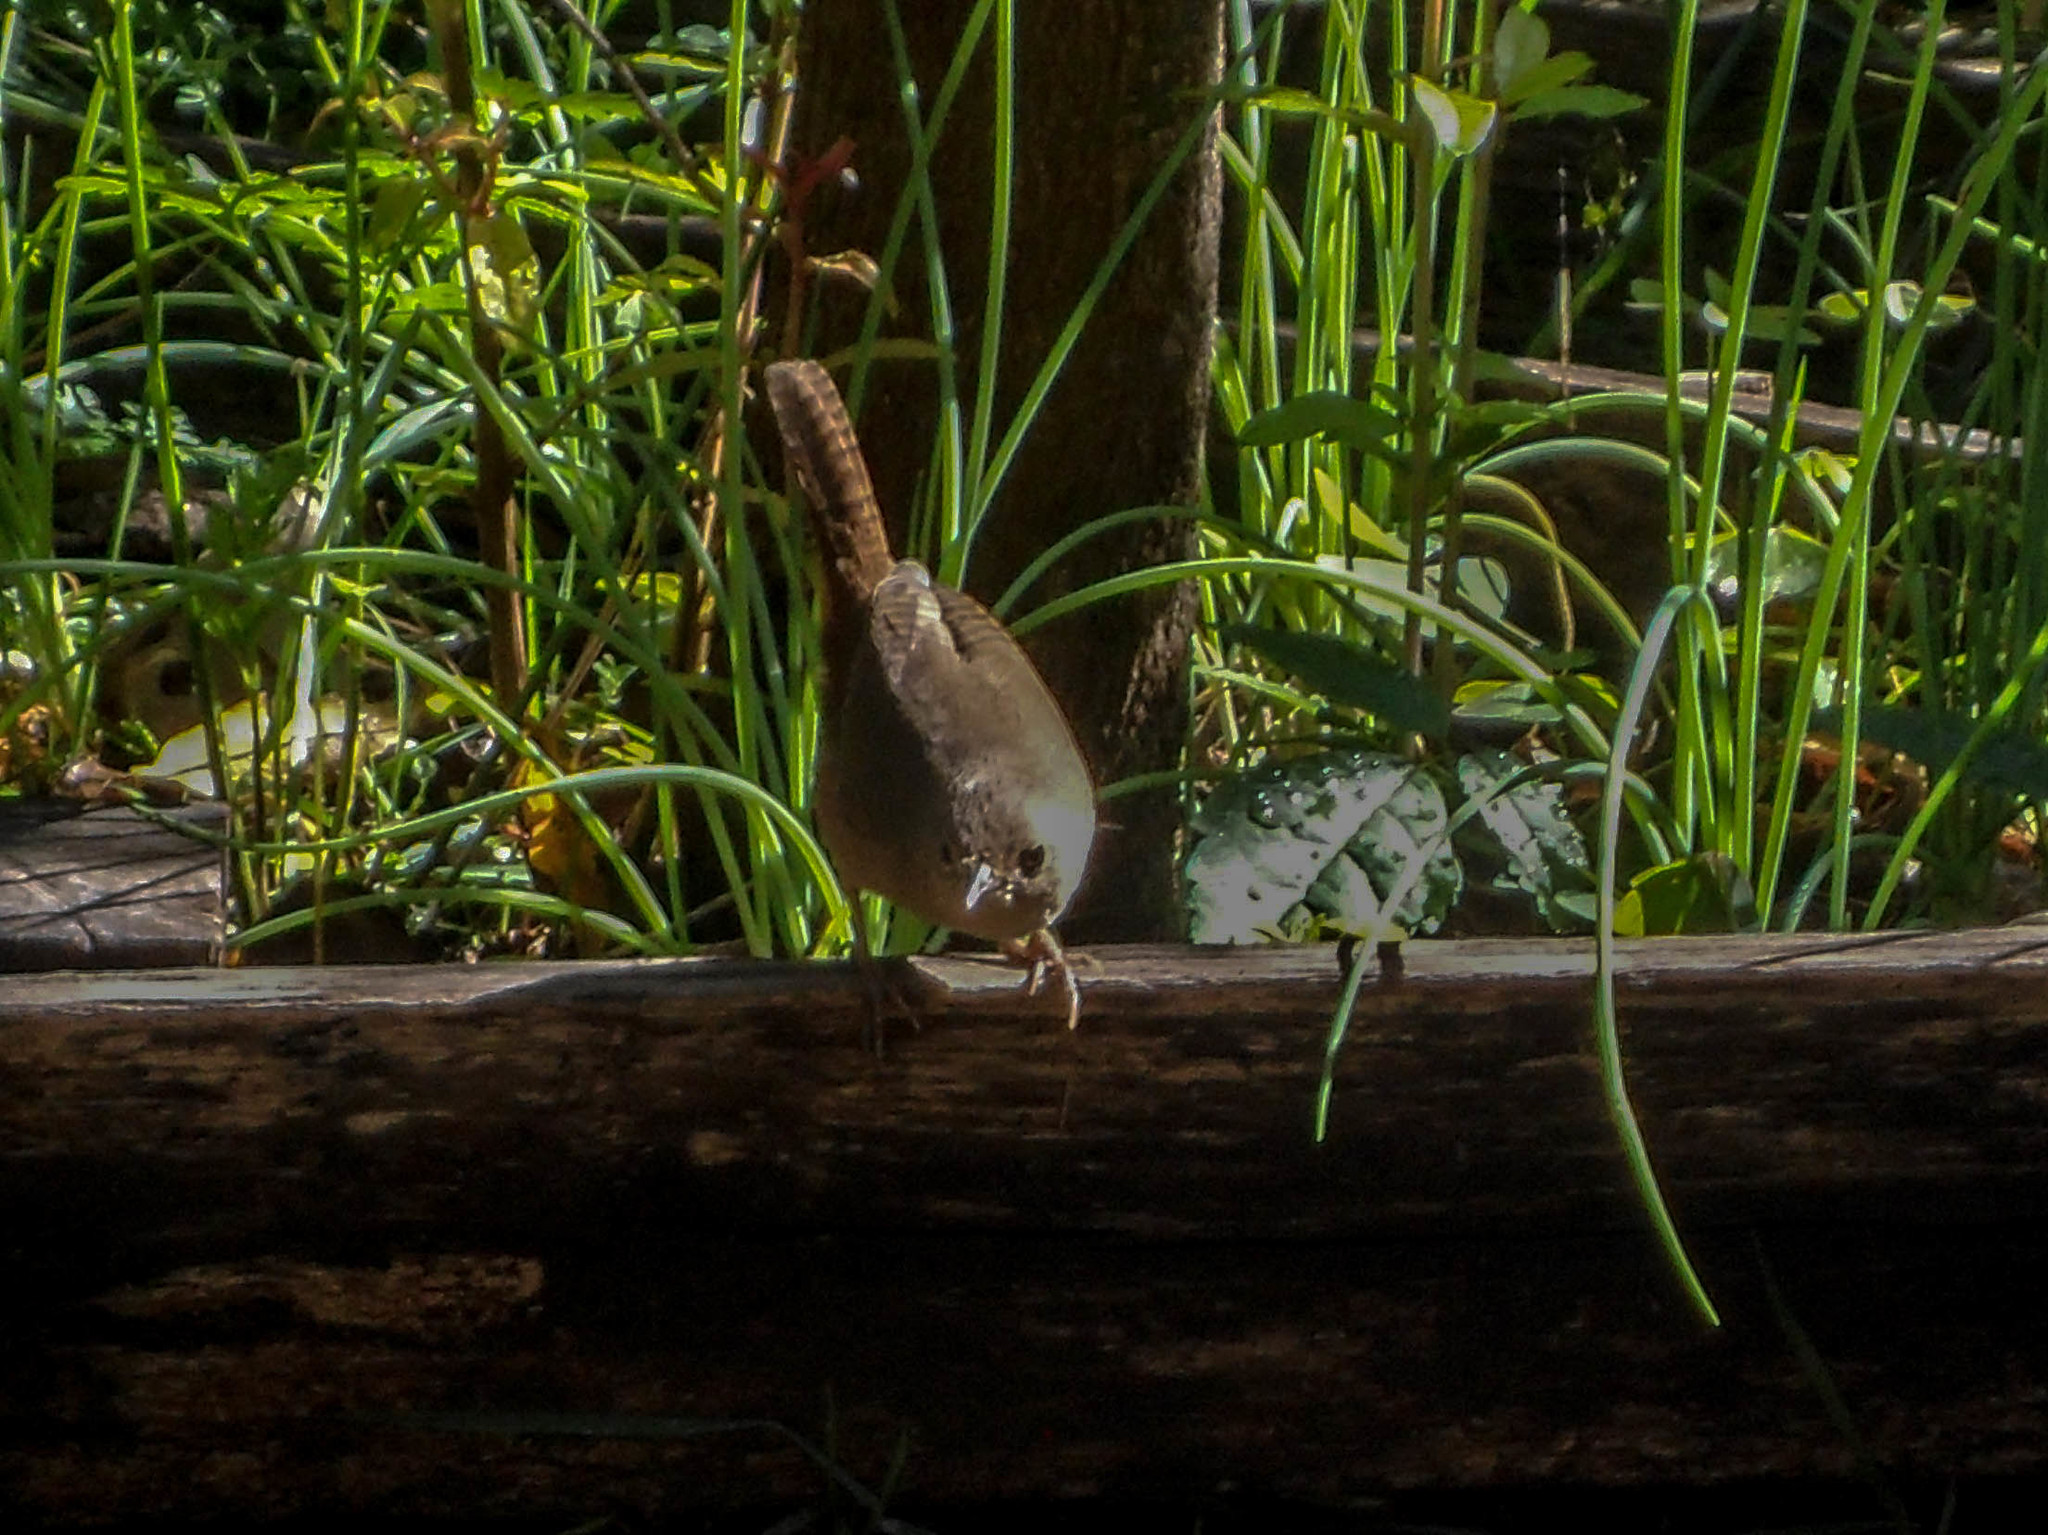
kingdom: Animalia
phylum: Chordata
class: Aves
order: Passeriformes
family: Troglodytidae
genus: Troglodytes
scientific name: Troglodytes aedon
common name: House wren
